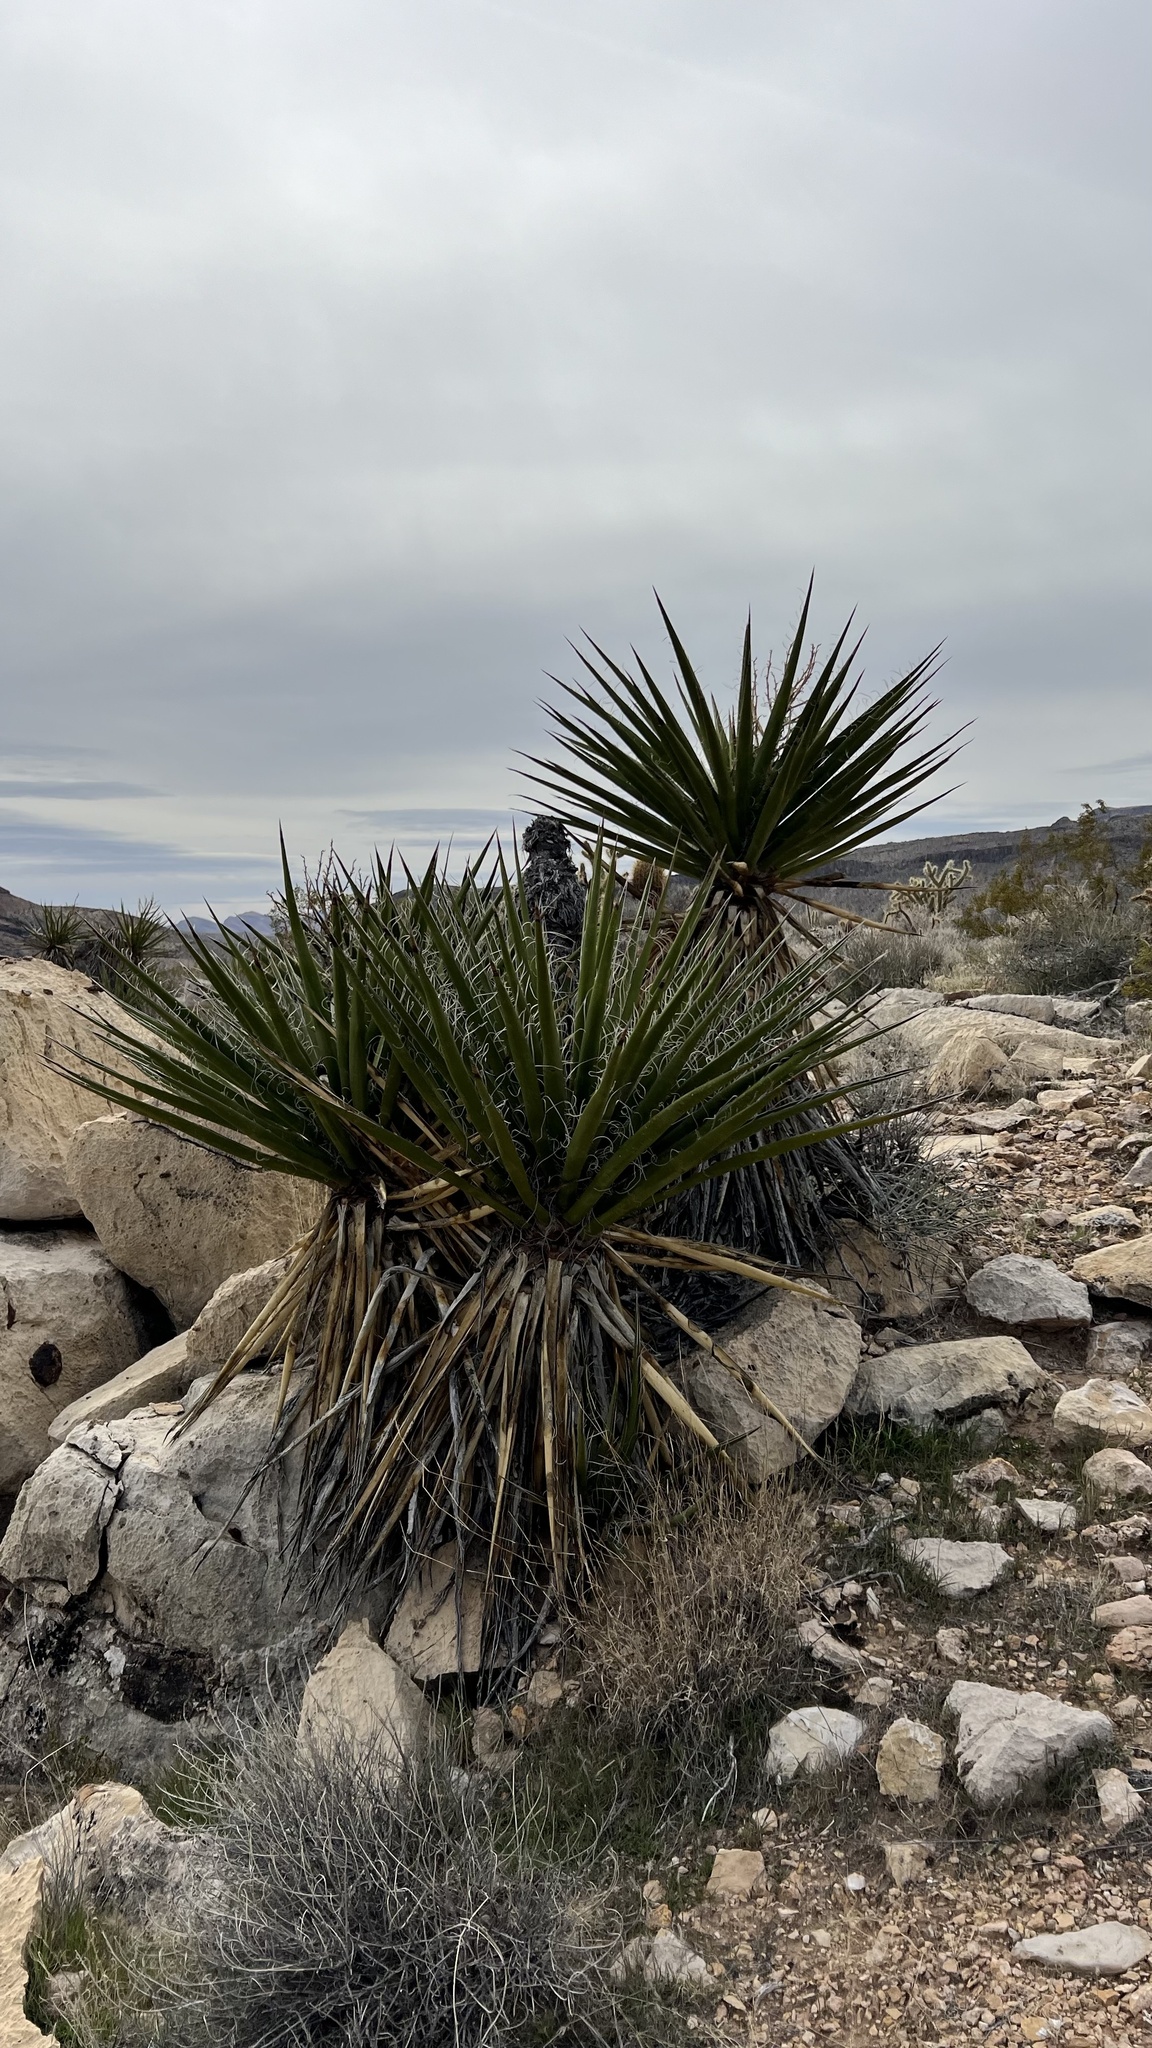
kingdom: Plantae
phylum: Tracheophyta
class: Liliopsida
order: Asparagales
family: Asparagaceae
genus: Yucca
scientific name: Yucca schidigera
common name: Mojave yucca
